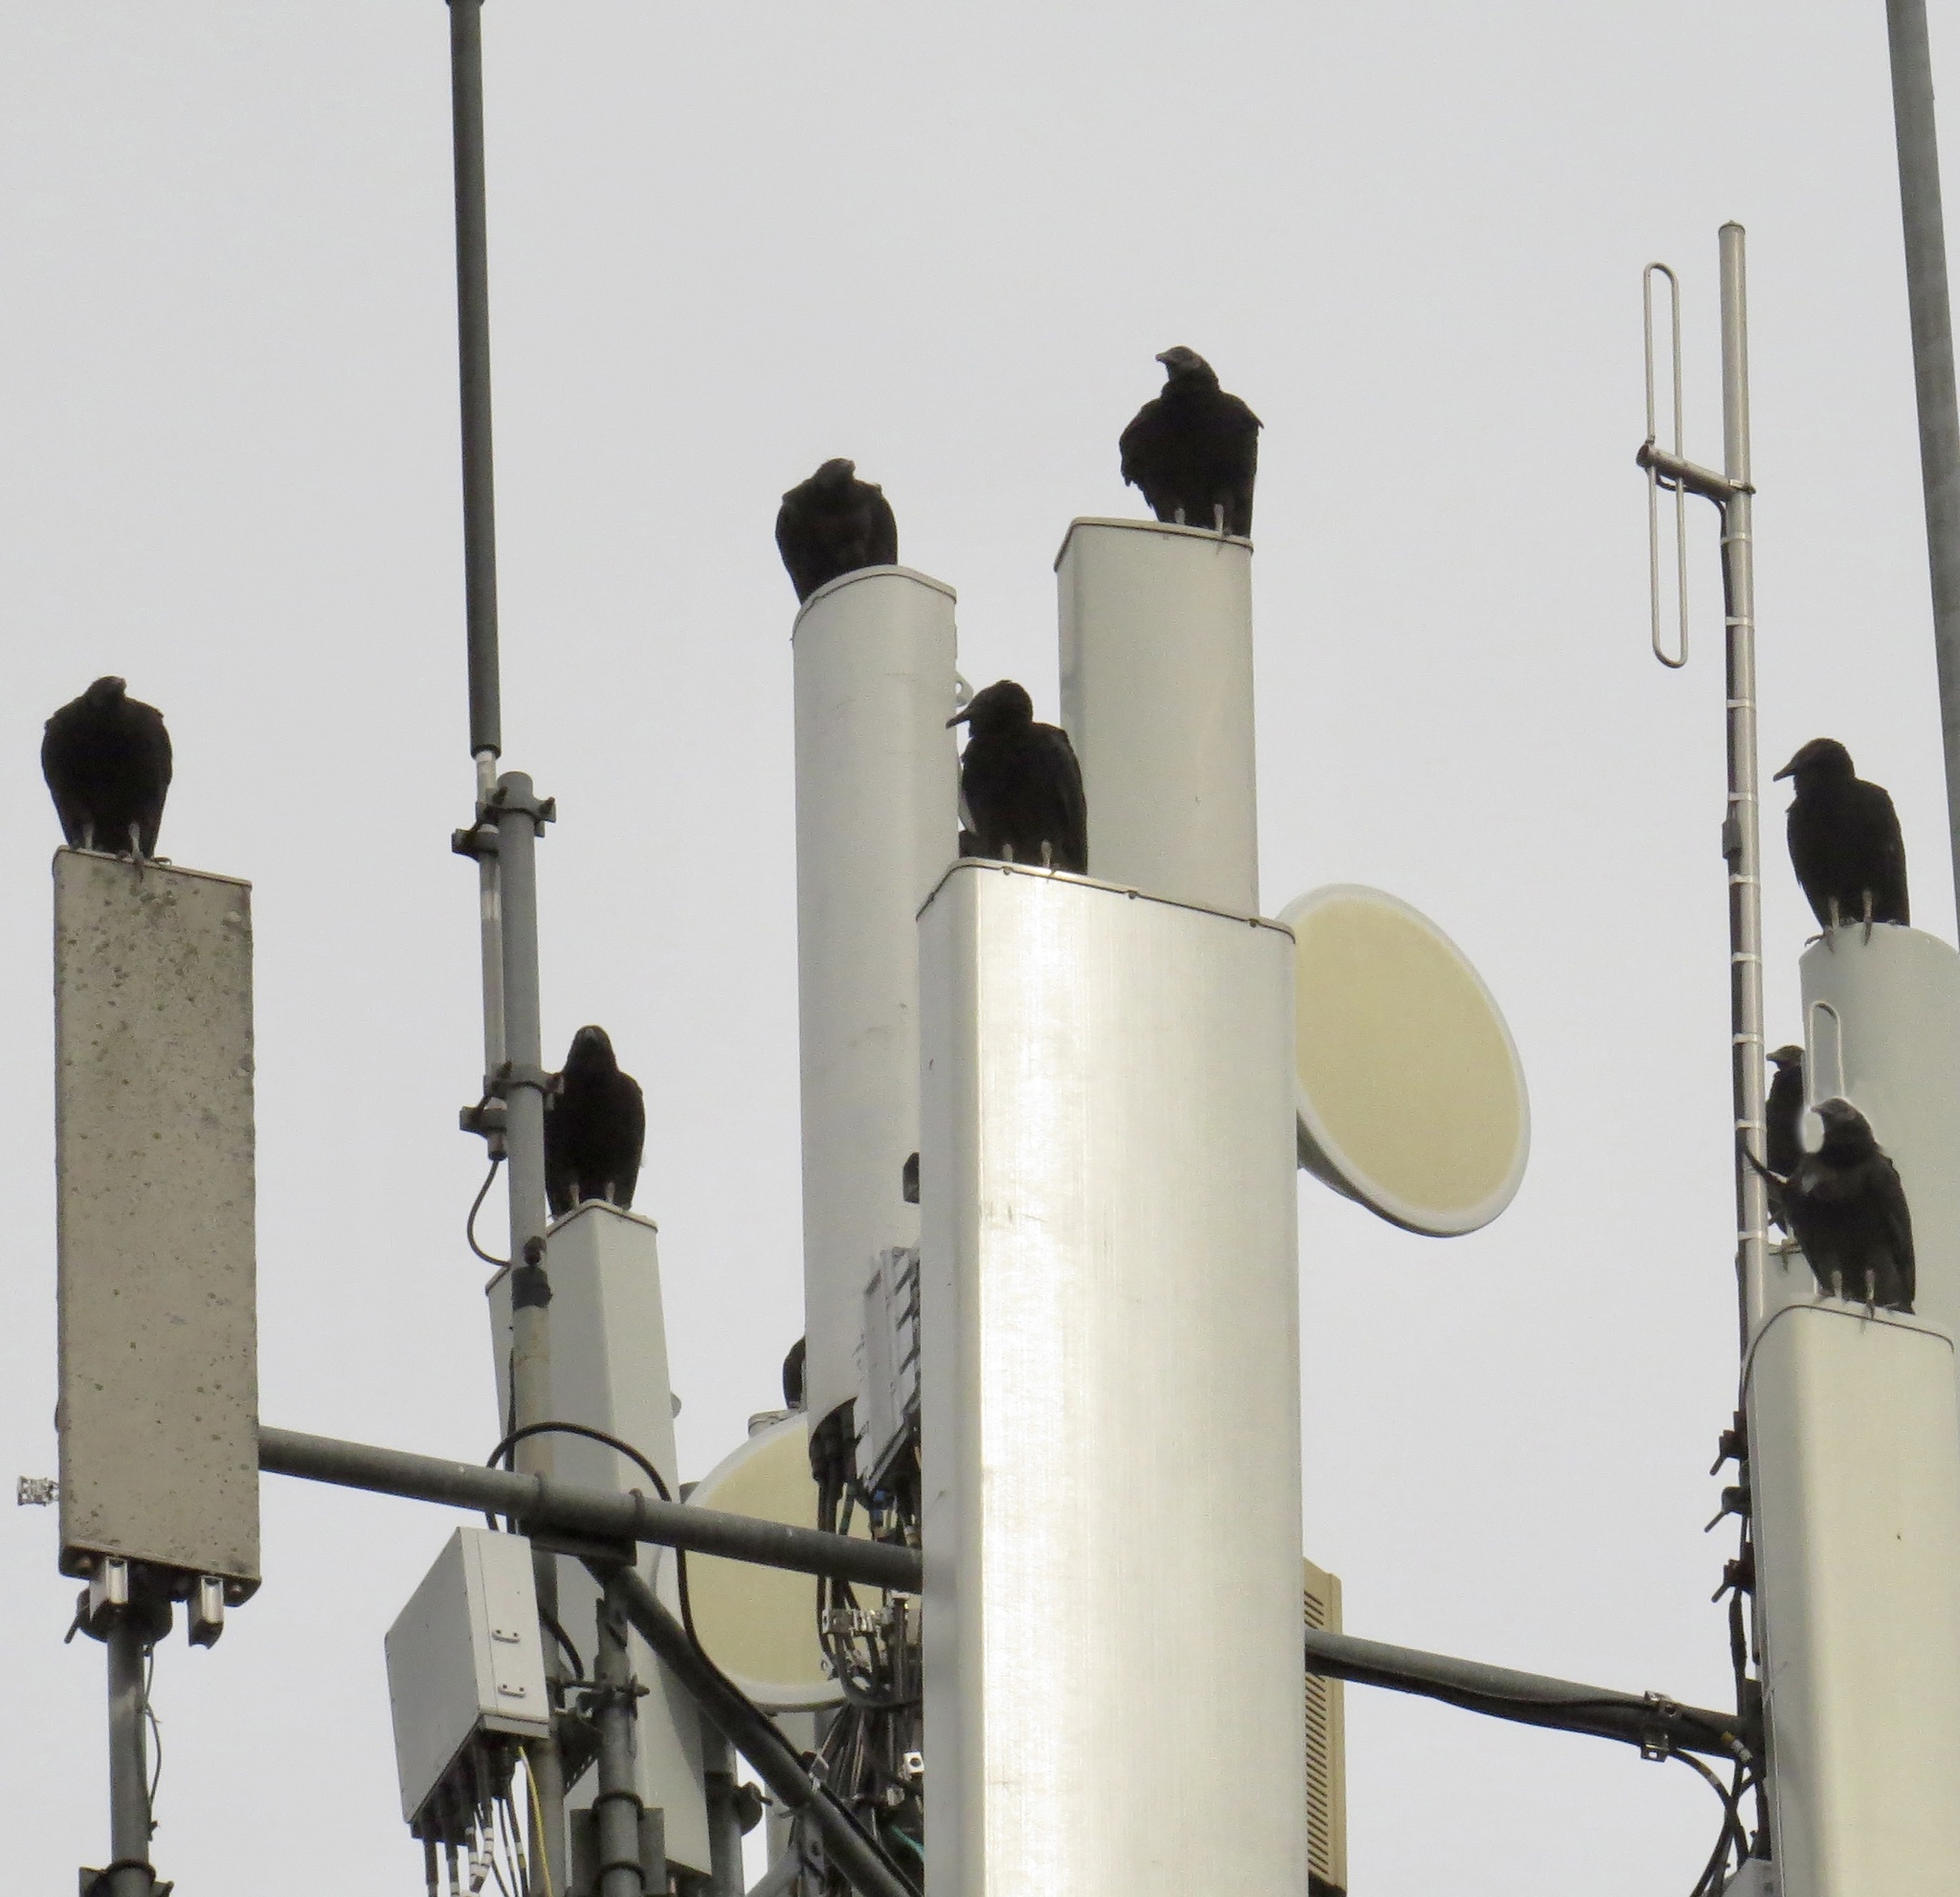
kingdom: Animalia
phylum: Chordata
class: Aves
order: Accipitriformes
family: Cathartidae
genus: Coragyps
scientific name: Coragyps atratus
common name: Black vulture
